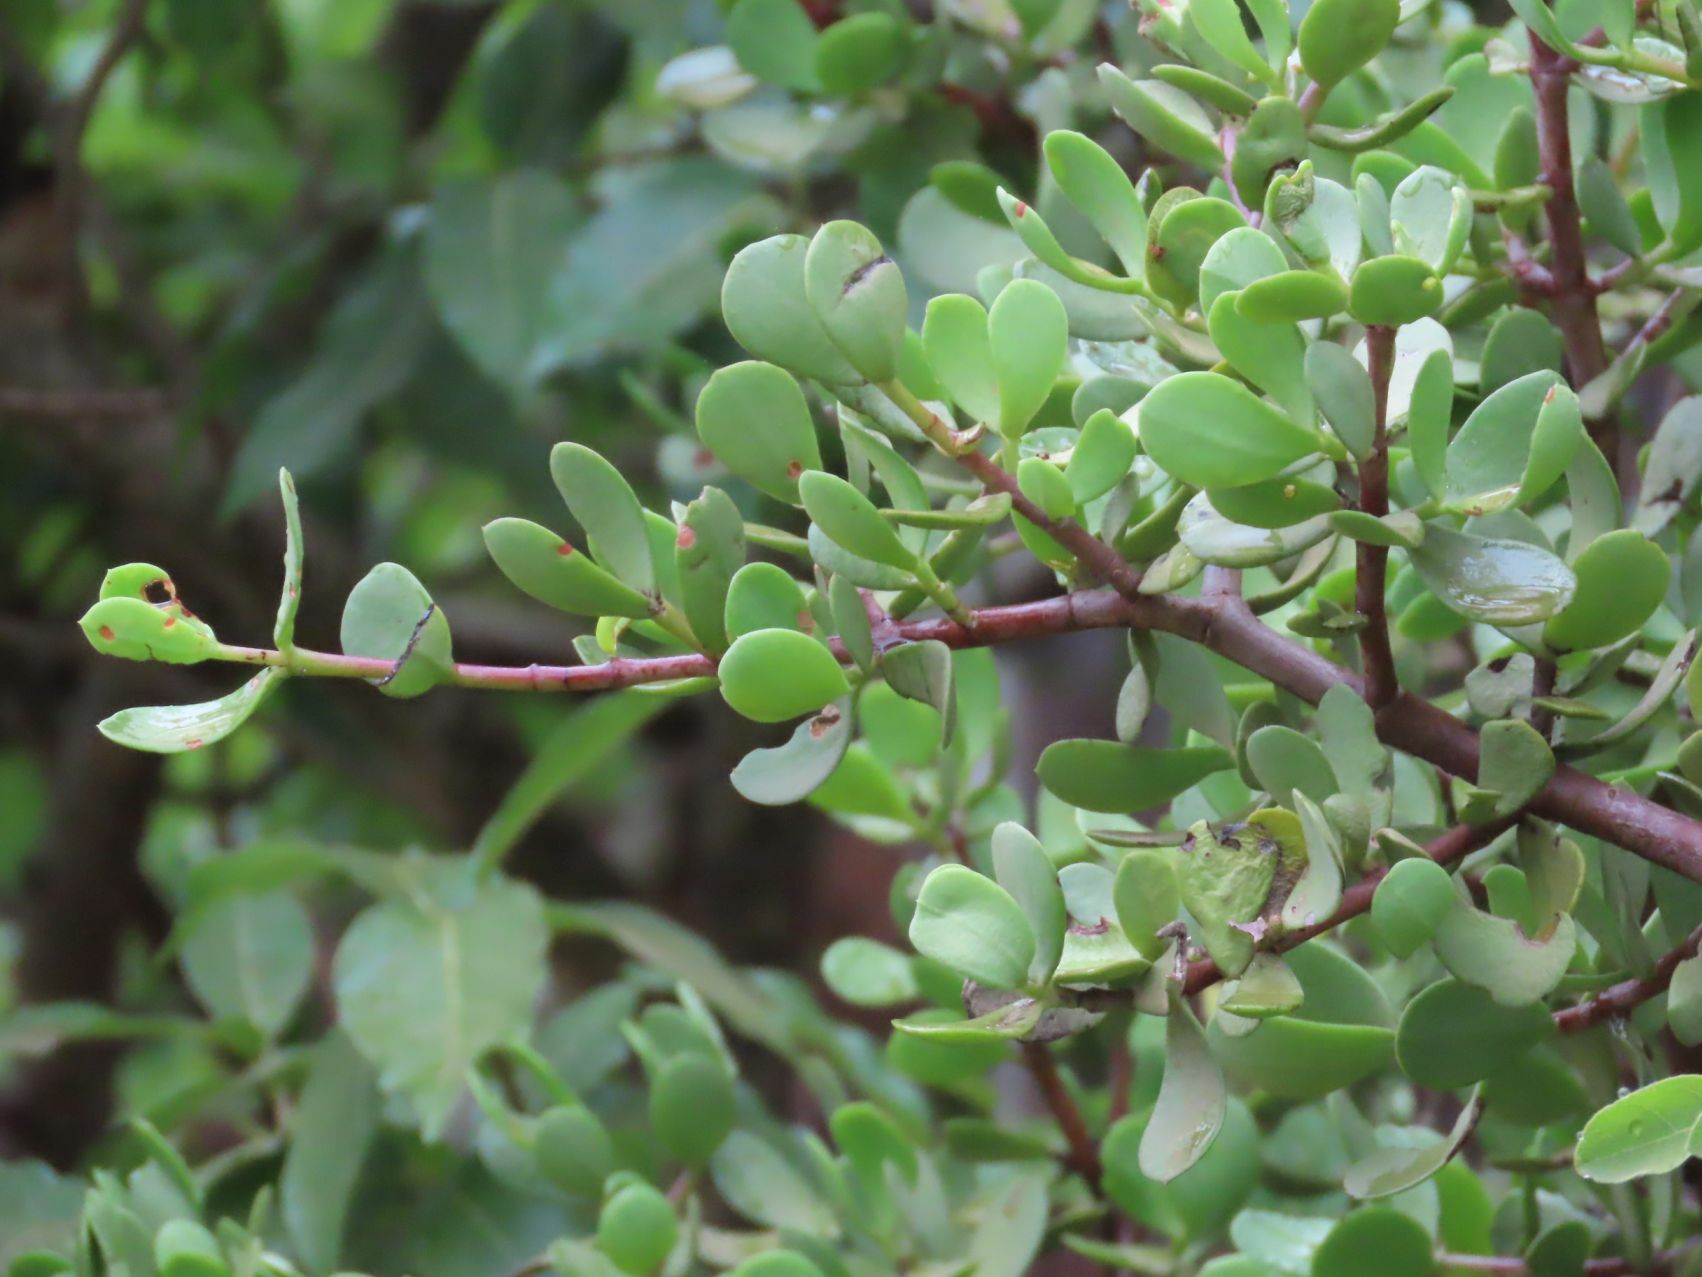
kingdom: Plantae
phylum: Tracheophyta
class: Magnoliopsida
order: Caryophyllales
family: Didiereaceae
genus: Portulacaria
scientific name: Portulacaria afra
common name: Elephant-bush
